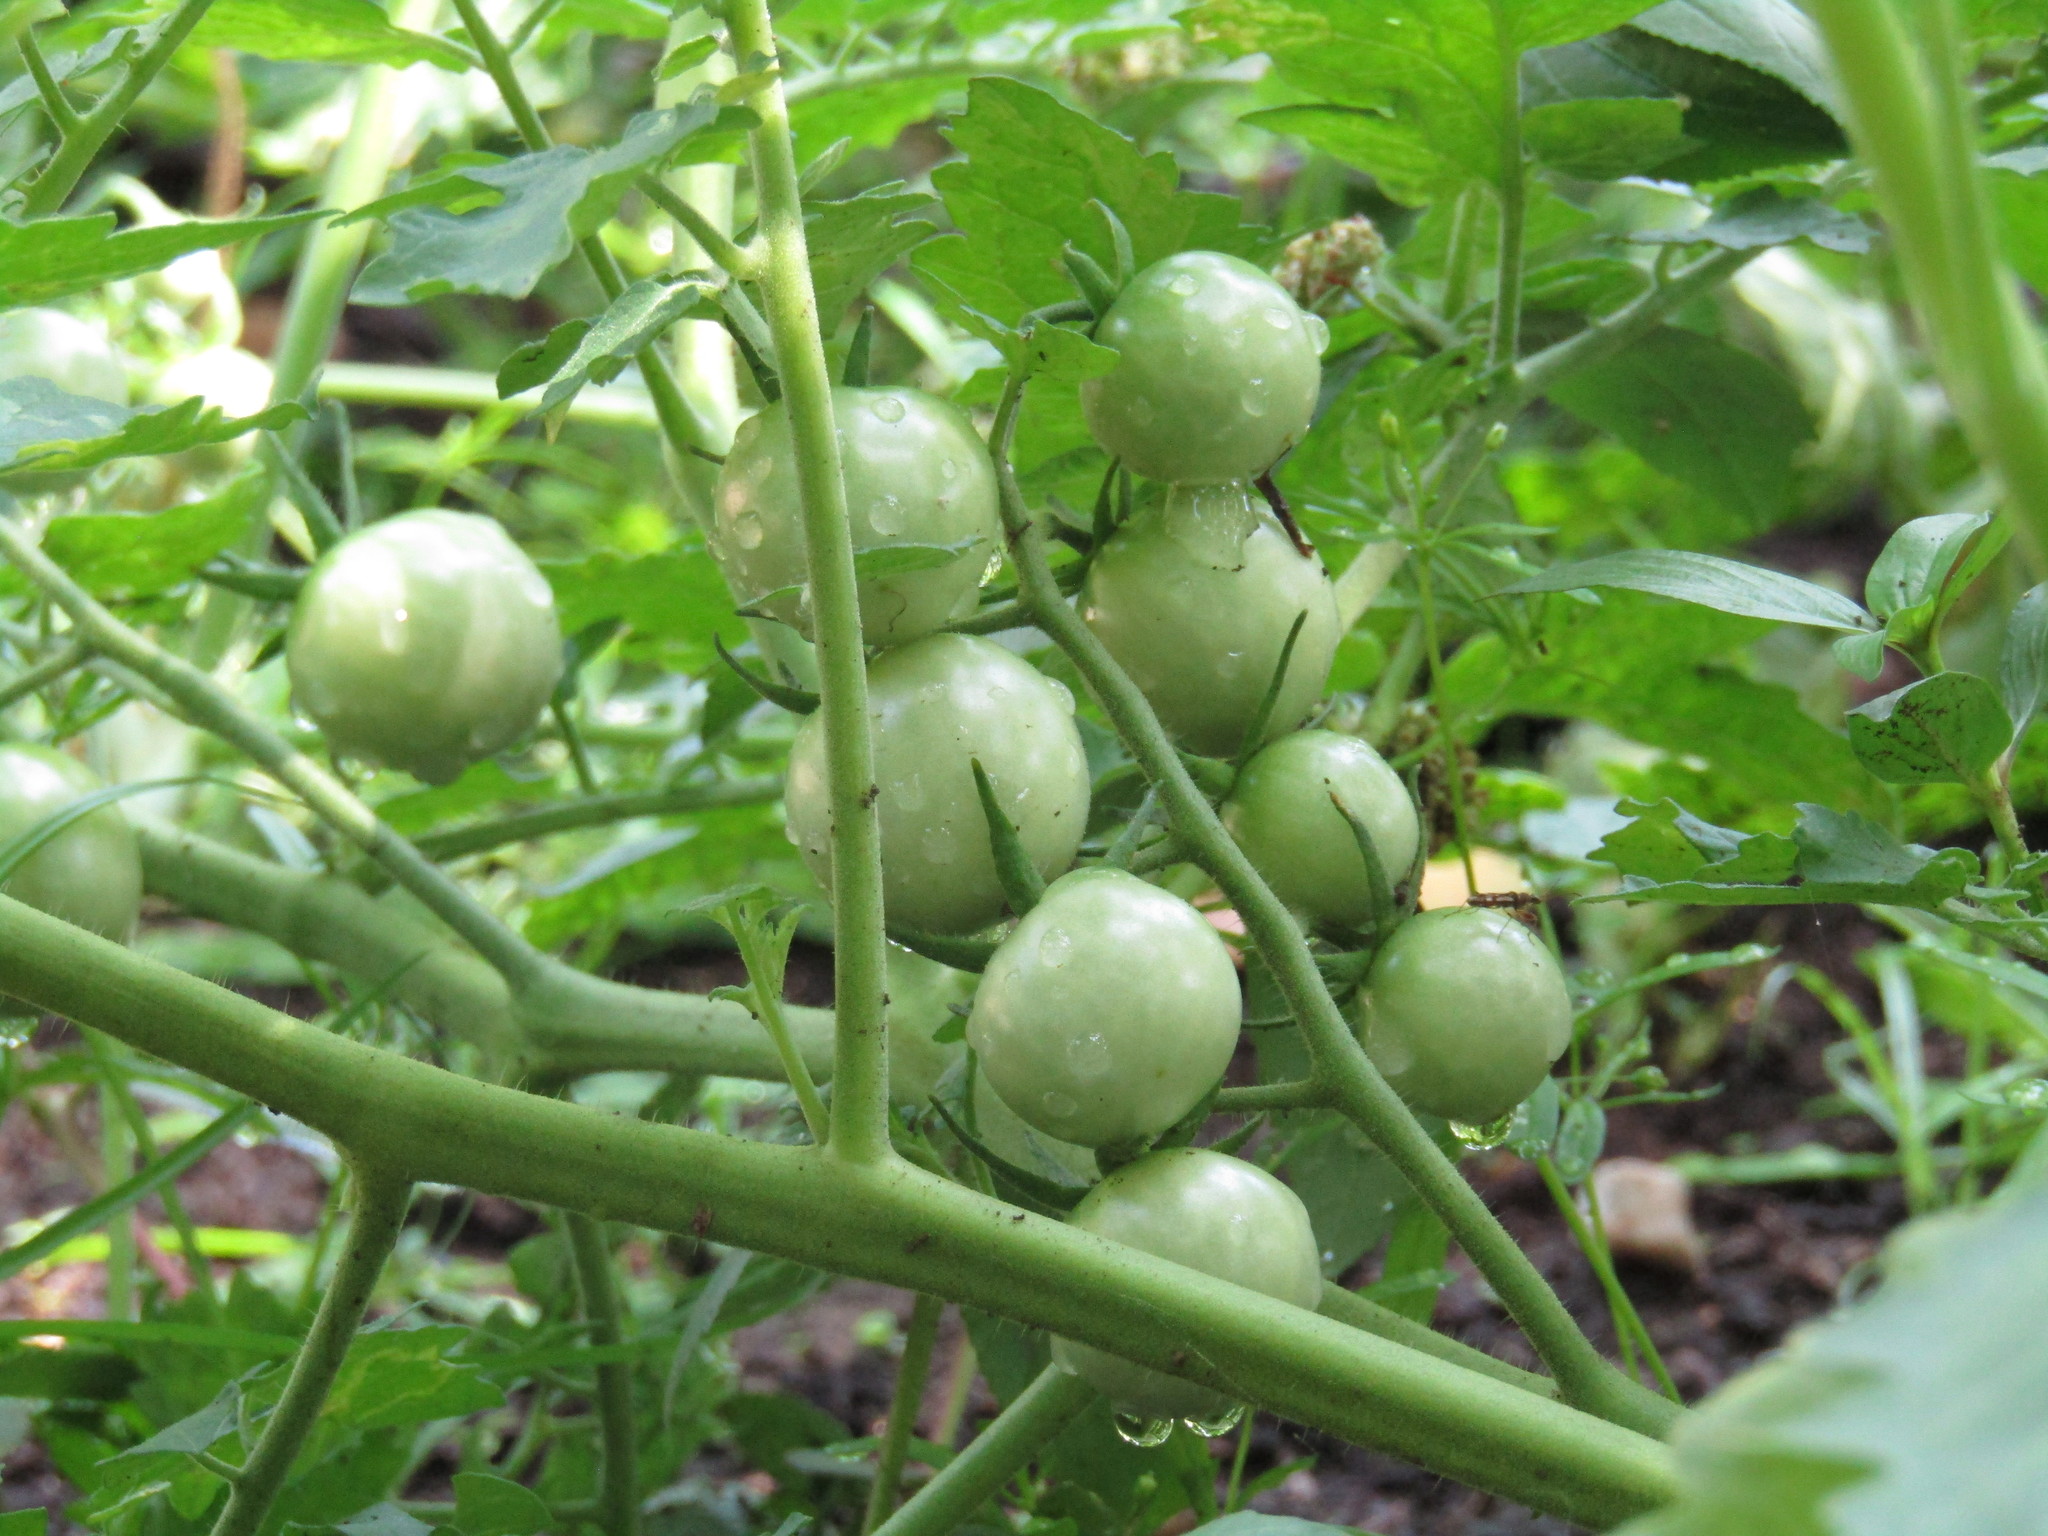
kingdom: Plantae
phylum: Tracheophyta
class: Magnoliopsida
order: Solanales
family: Solanaceae
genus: Solanum
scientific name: Solanum lycopersicum
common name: Garden tomato
